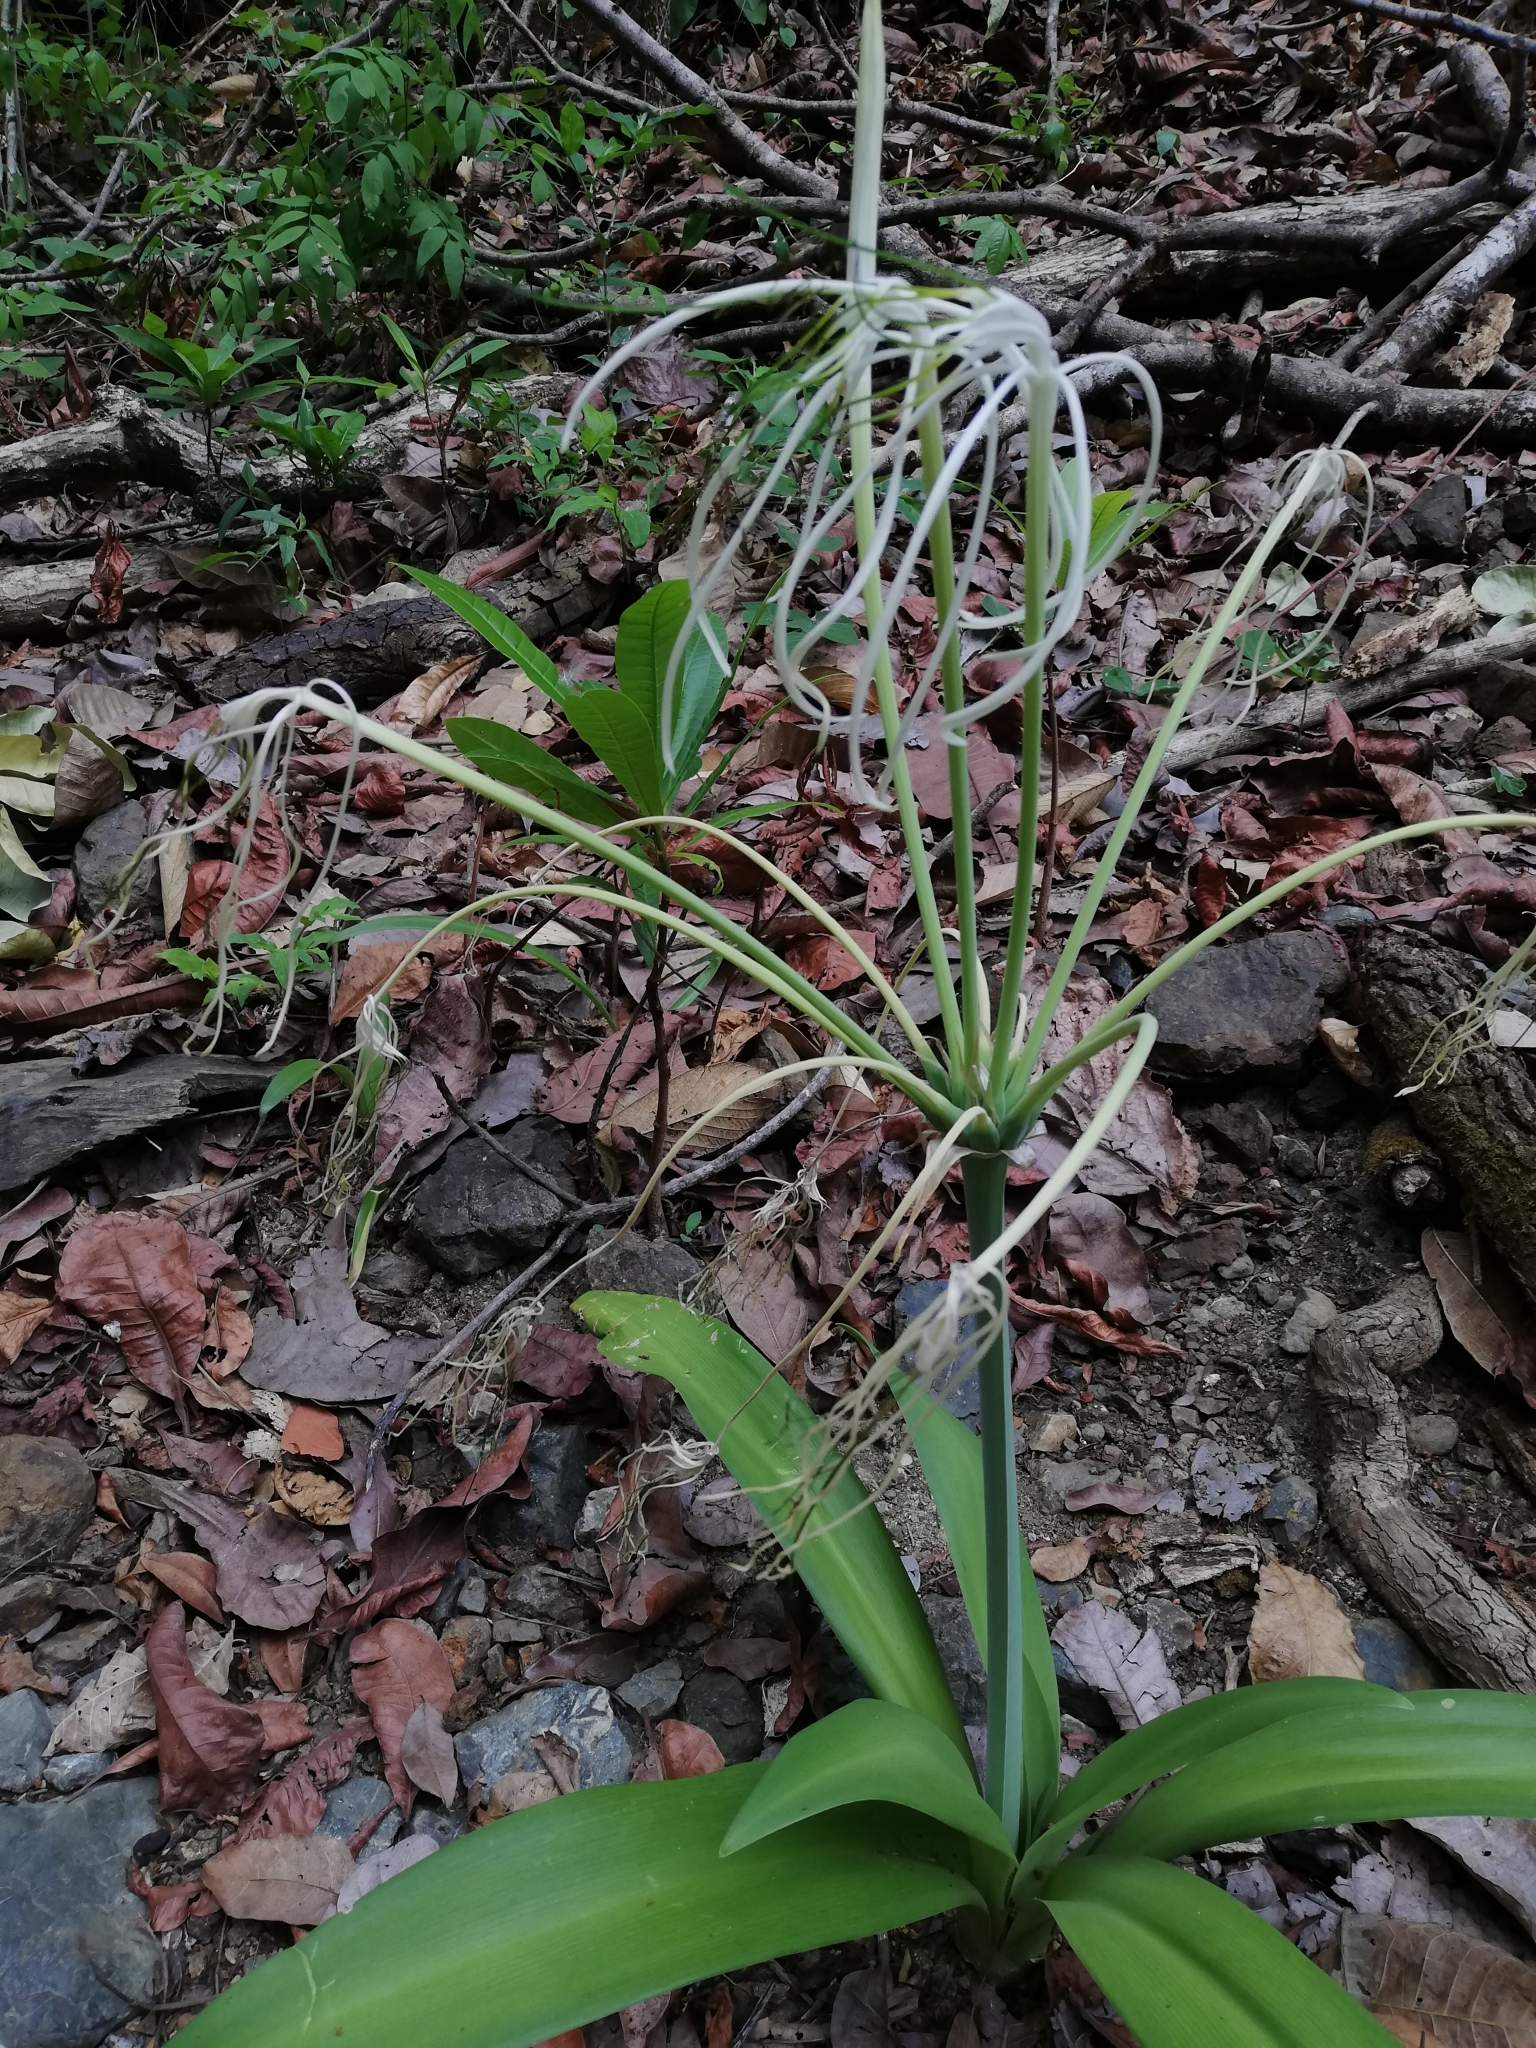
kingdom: Plantae
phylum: Tracheophyta
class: Liliopsida
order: Asparagales
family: Amaryllidaceae
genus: Hymenocallis
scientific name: Hymenocallis littoralis
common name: Beach spiderlily
